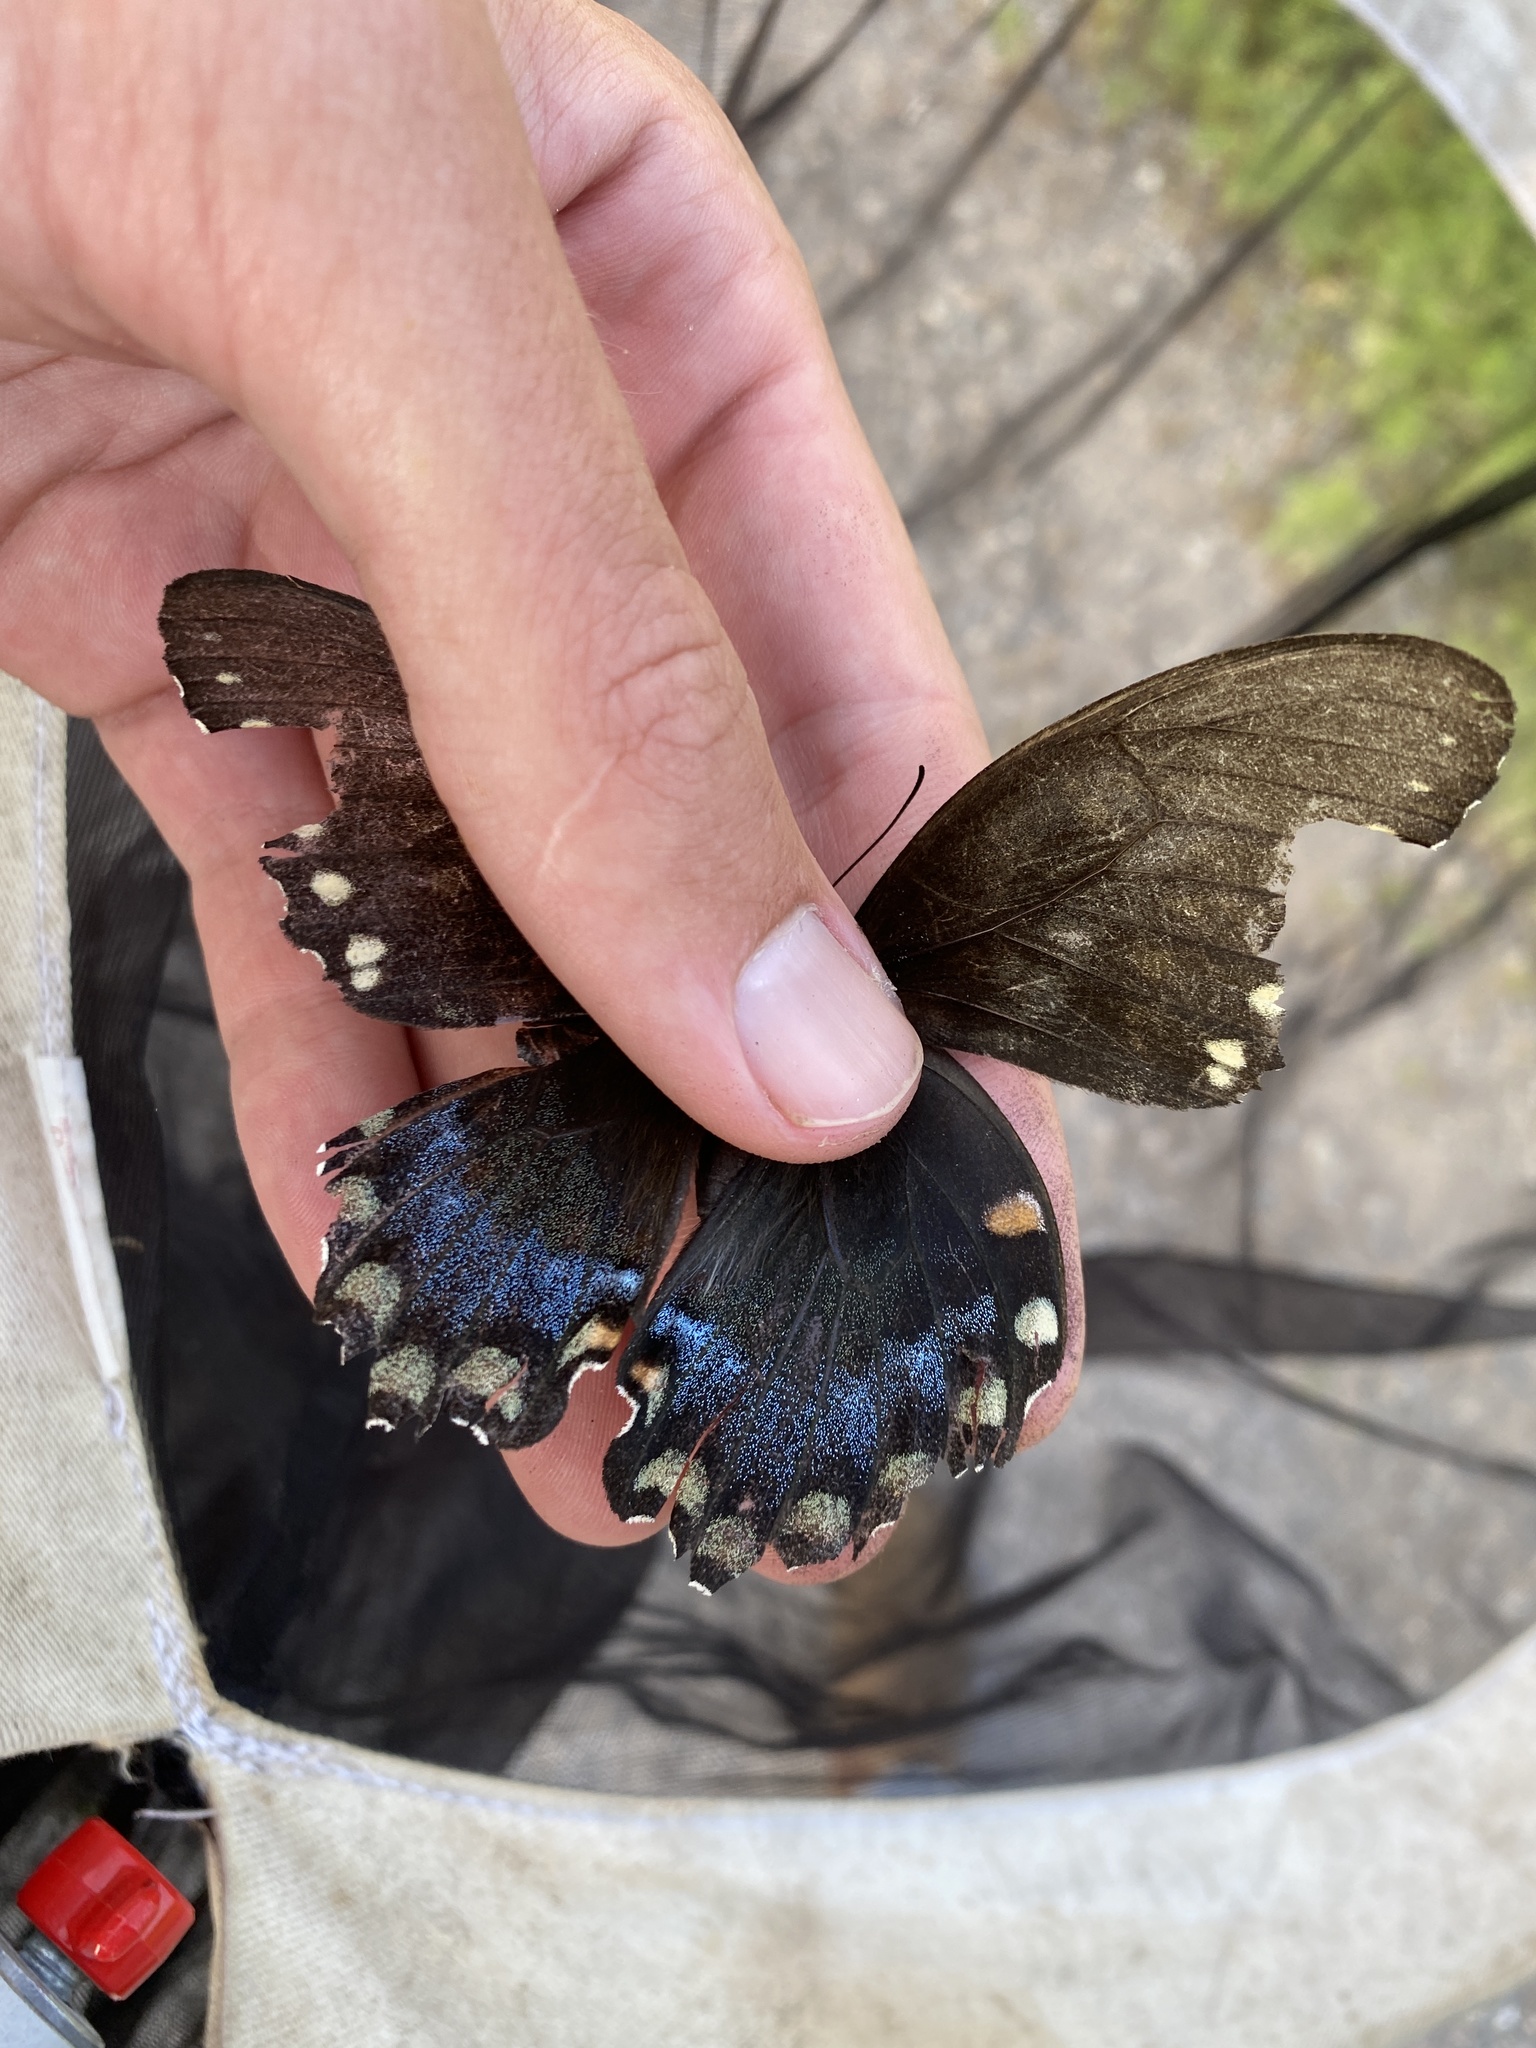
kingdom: Animalia
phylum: Arthropoda
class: Insecta
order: Lepidoptera
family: Papilionidae
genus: Papilio
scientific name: Papilio troilus
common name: Spicebush swallowtail
